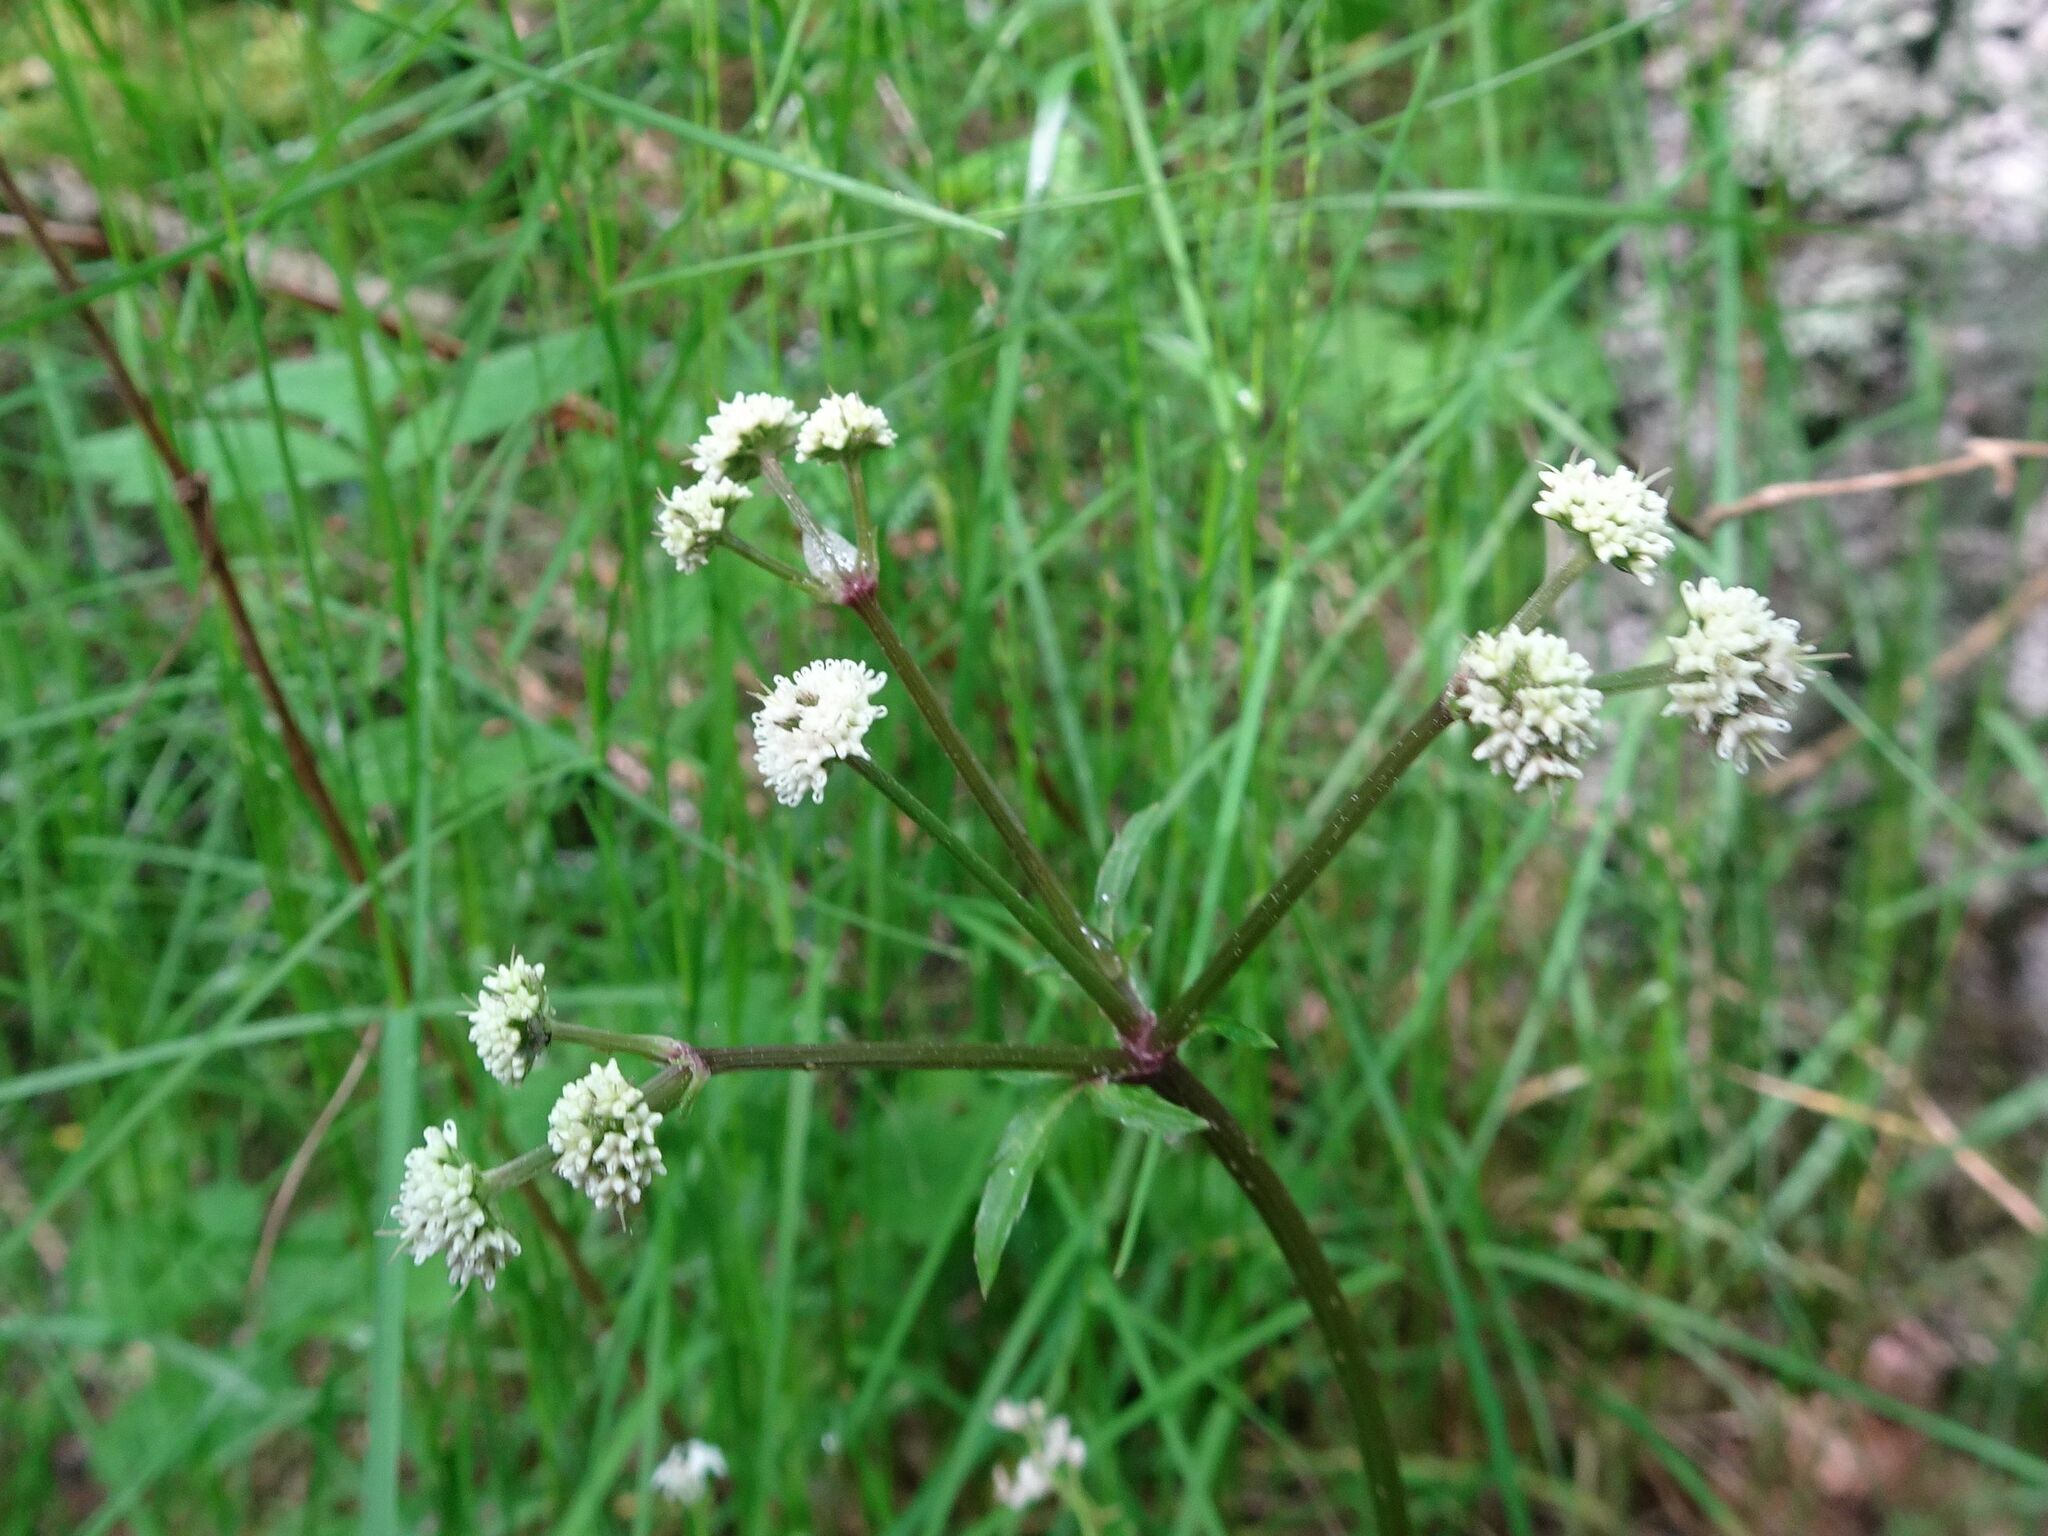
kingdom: Plantae
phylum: Tracheophyta
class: Magnoliopsida
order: Apiales
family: Apiaceae
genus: Sanicula
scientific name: Sanicula europaea
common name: Sanicle
